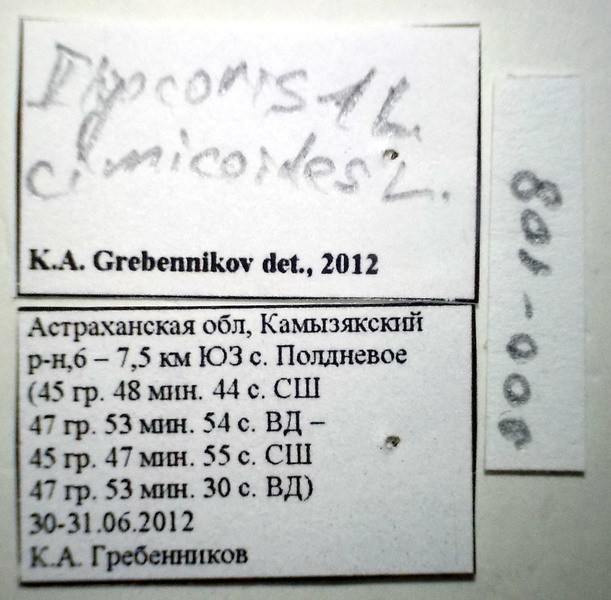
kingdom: Animalia
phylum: Arthropoda
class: Insecta
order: Hemiptera
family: Naucoridae
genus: Ilyocoris
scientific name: Ilyocoris cimicoides
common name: Saucer bugs
